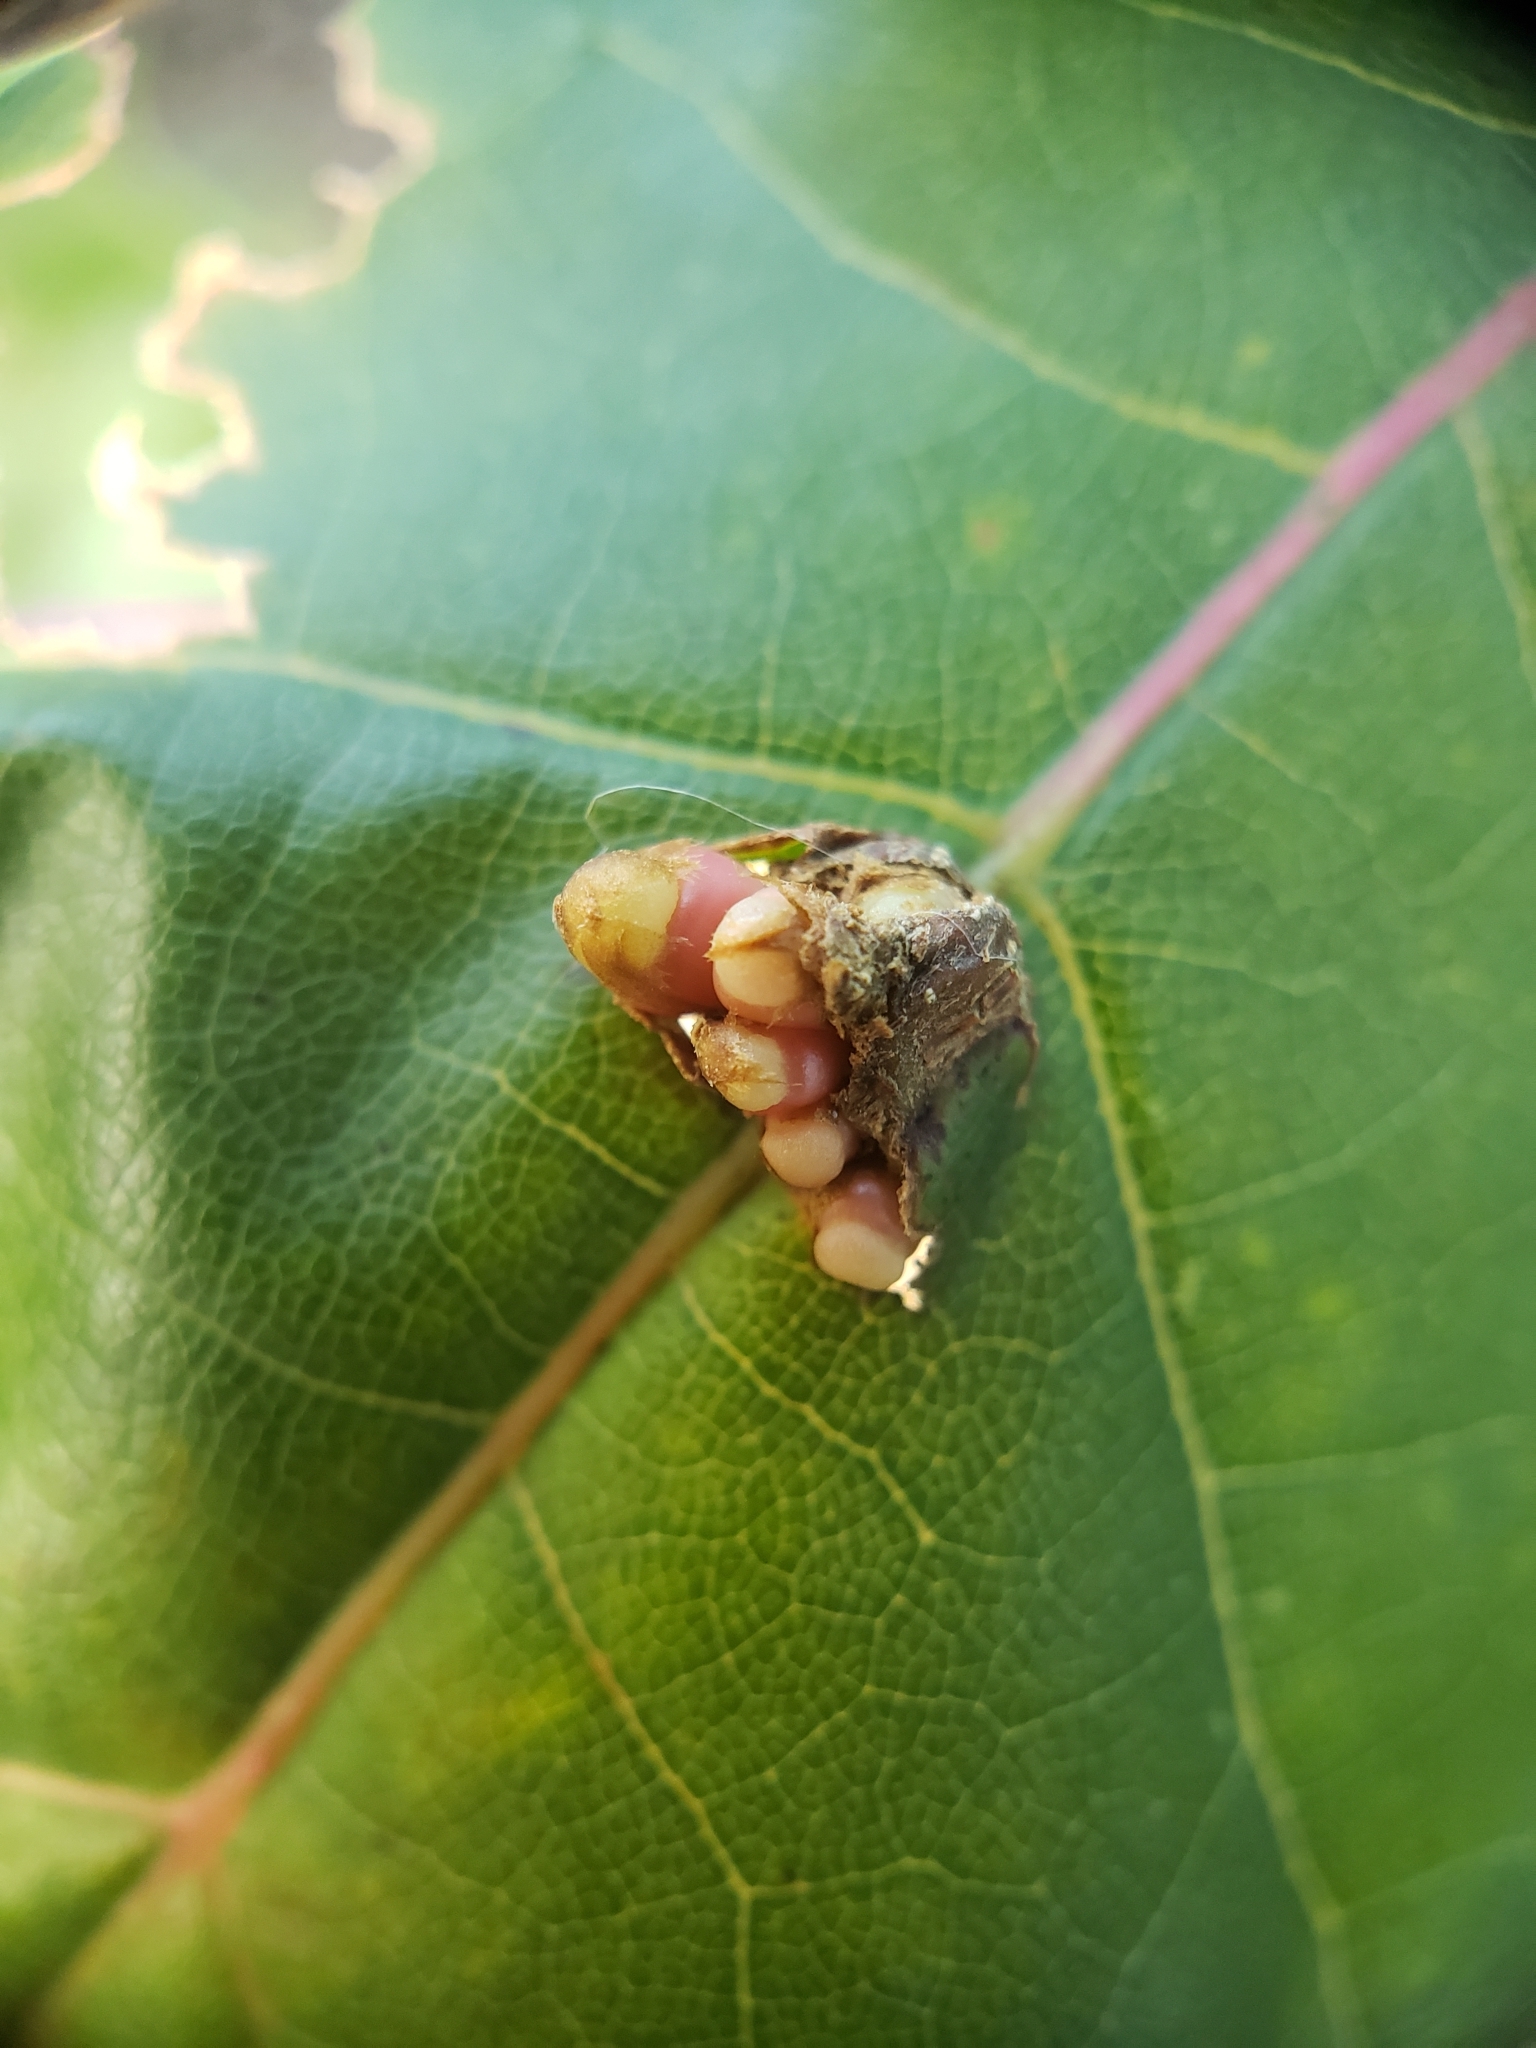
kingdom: Animalia
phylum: Arthropoda
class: Insecta
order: Hymenoptera
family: Cynipidae
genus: Kokkocynips
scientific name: Kokkocynips decidua
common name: Oak wheat gall
